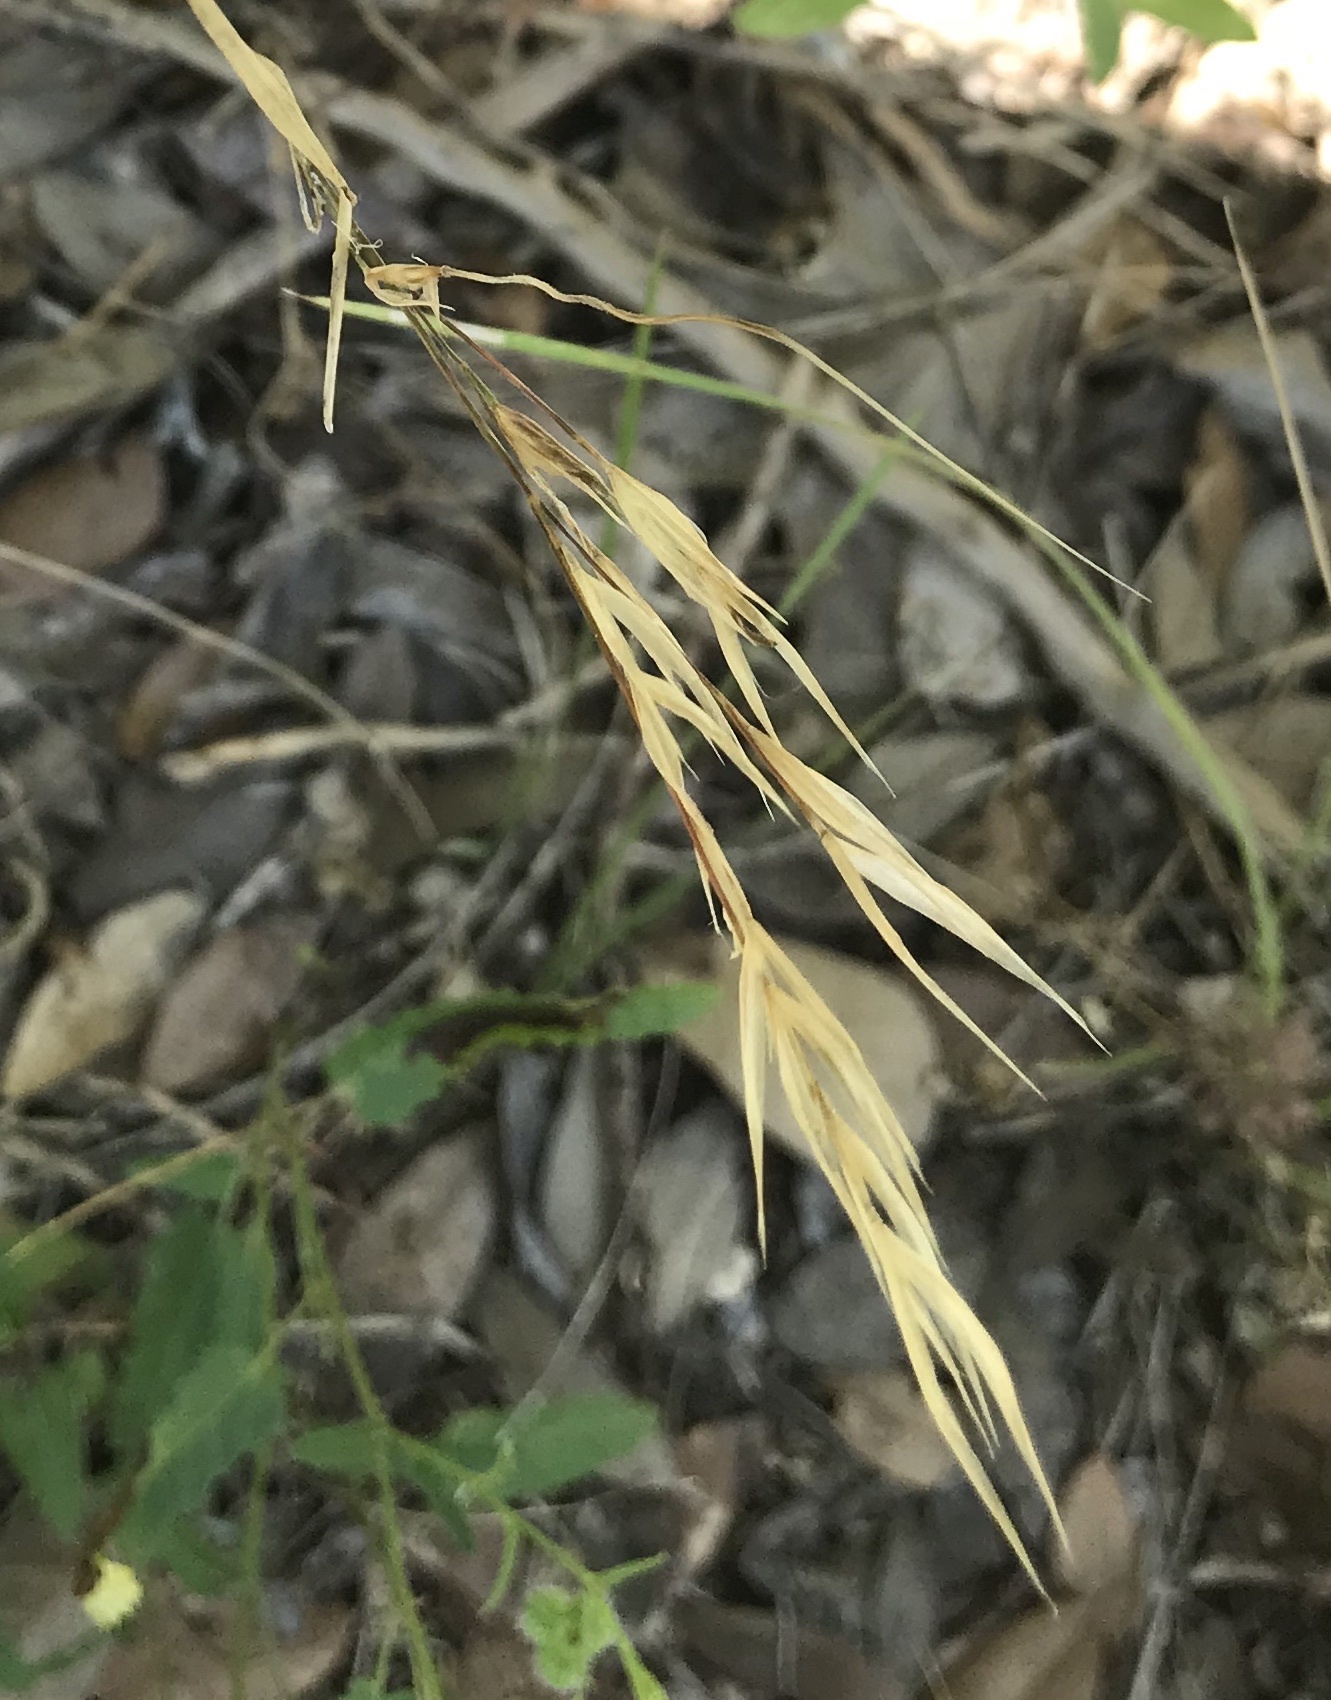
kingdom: Plantae
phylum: Tracheophyta
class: Liliopsida
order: Poales
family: Poaceae
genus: Nassella
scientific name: Nassella leucotricha
